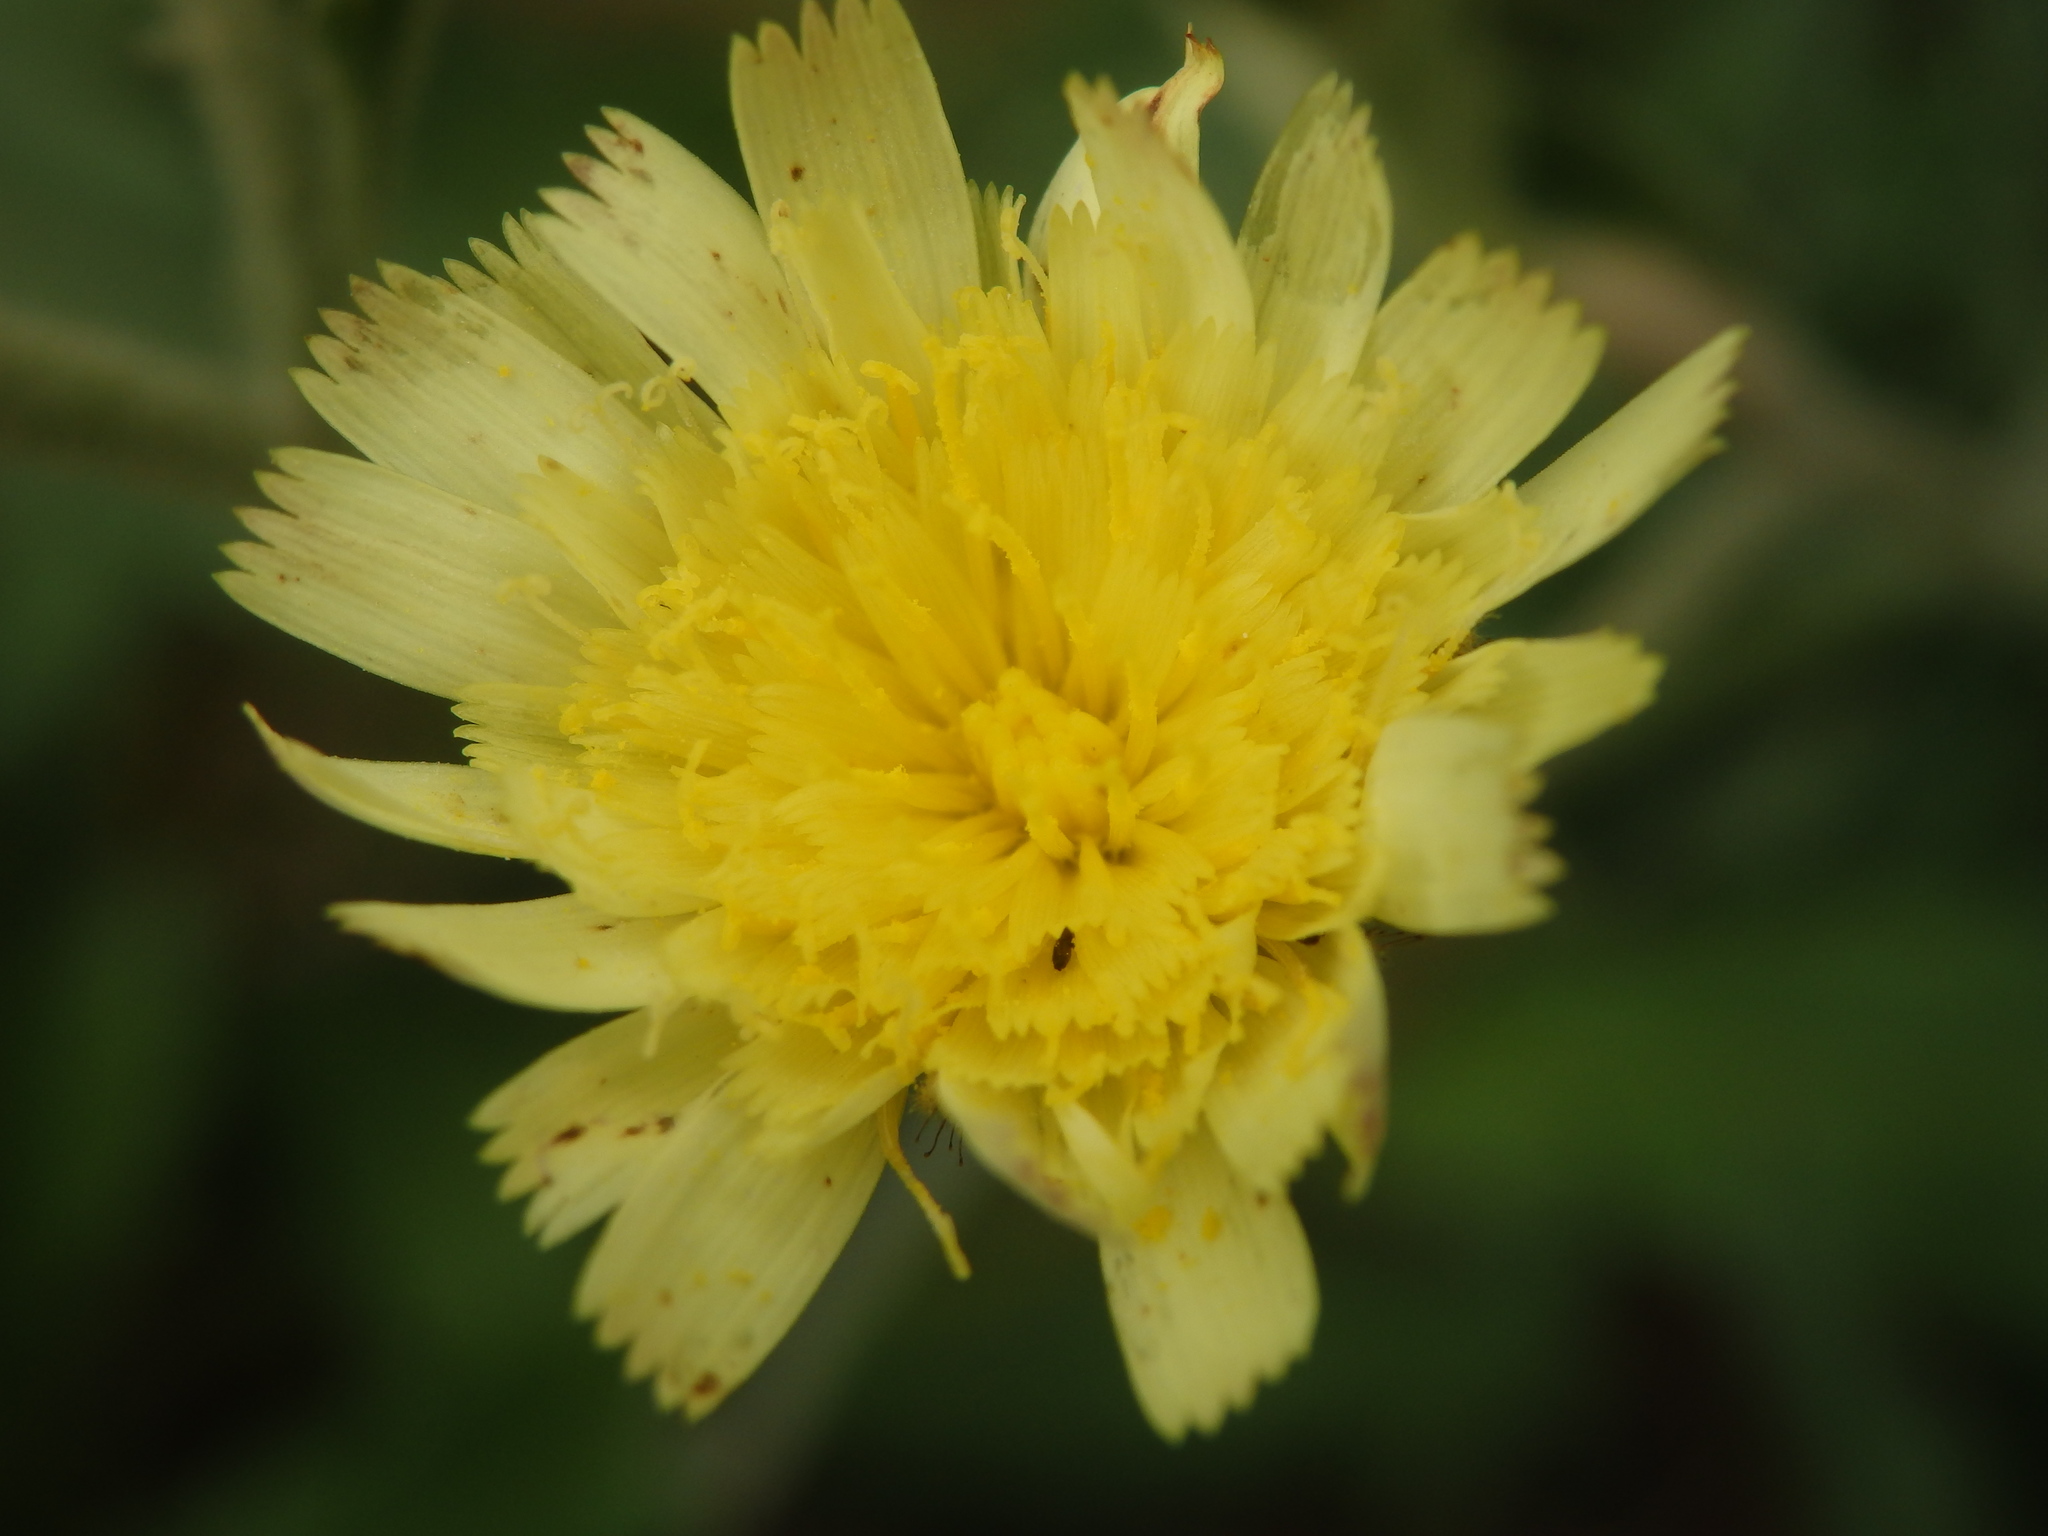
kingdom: Plantae
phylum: Tracheophyta
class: Magnoliopsida
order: Asterales
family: Asteraceae
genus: Andryala
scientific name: Andryala integrifolia
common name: Common andryala
